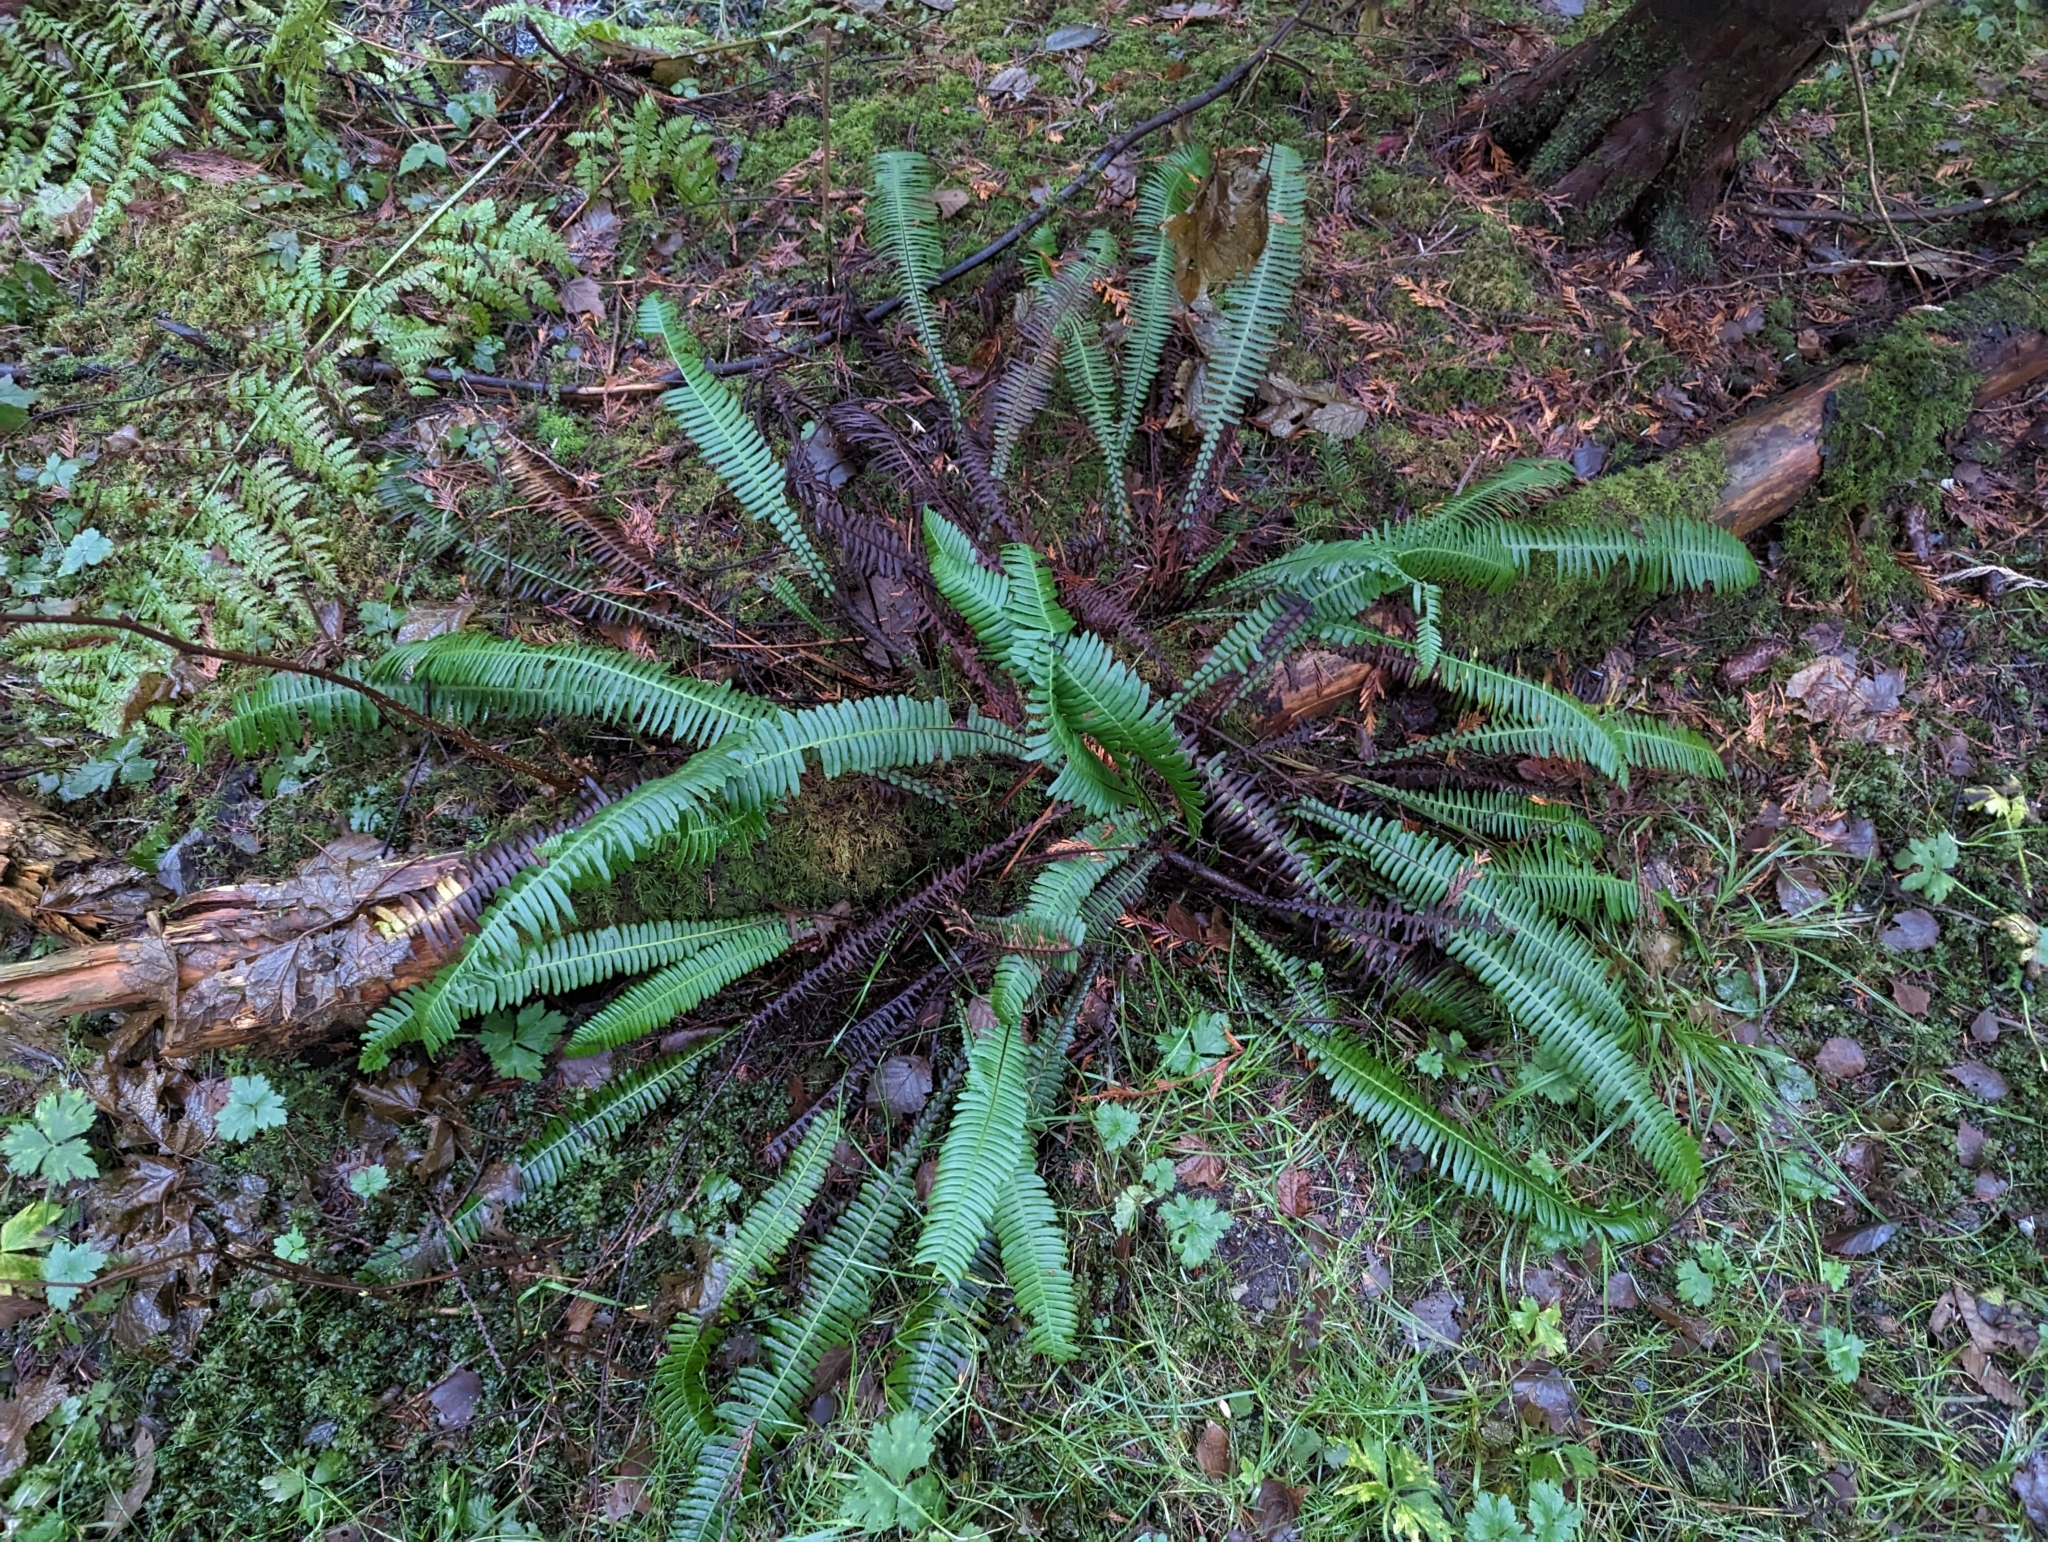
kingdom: Plantae
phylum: Tracheophyta
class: Polypodiopsida
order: Polypodiales
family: Blechnaceae
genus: Struthiopteris
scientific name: Struthiopteris spicant
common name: Deer fern
